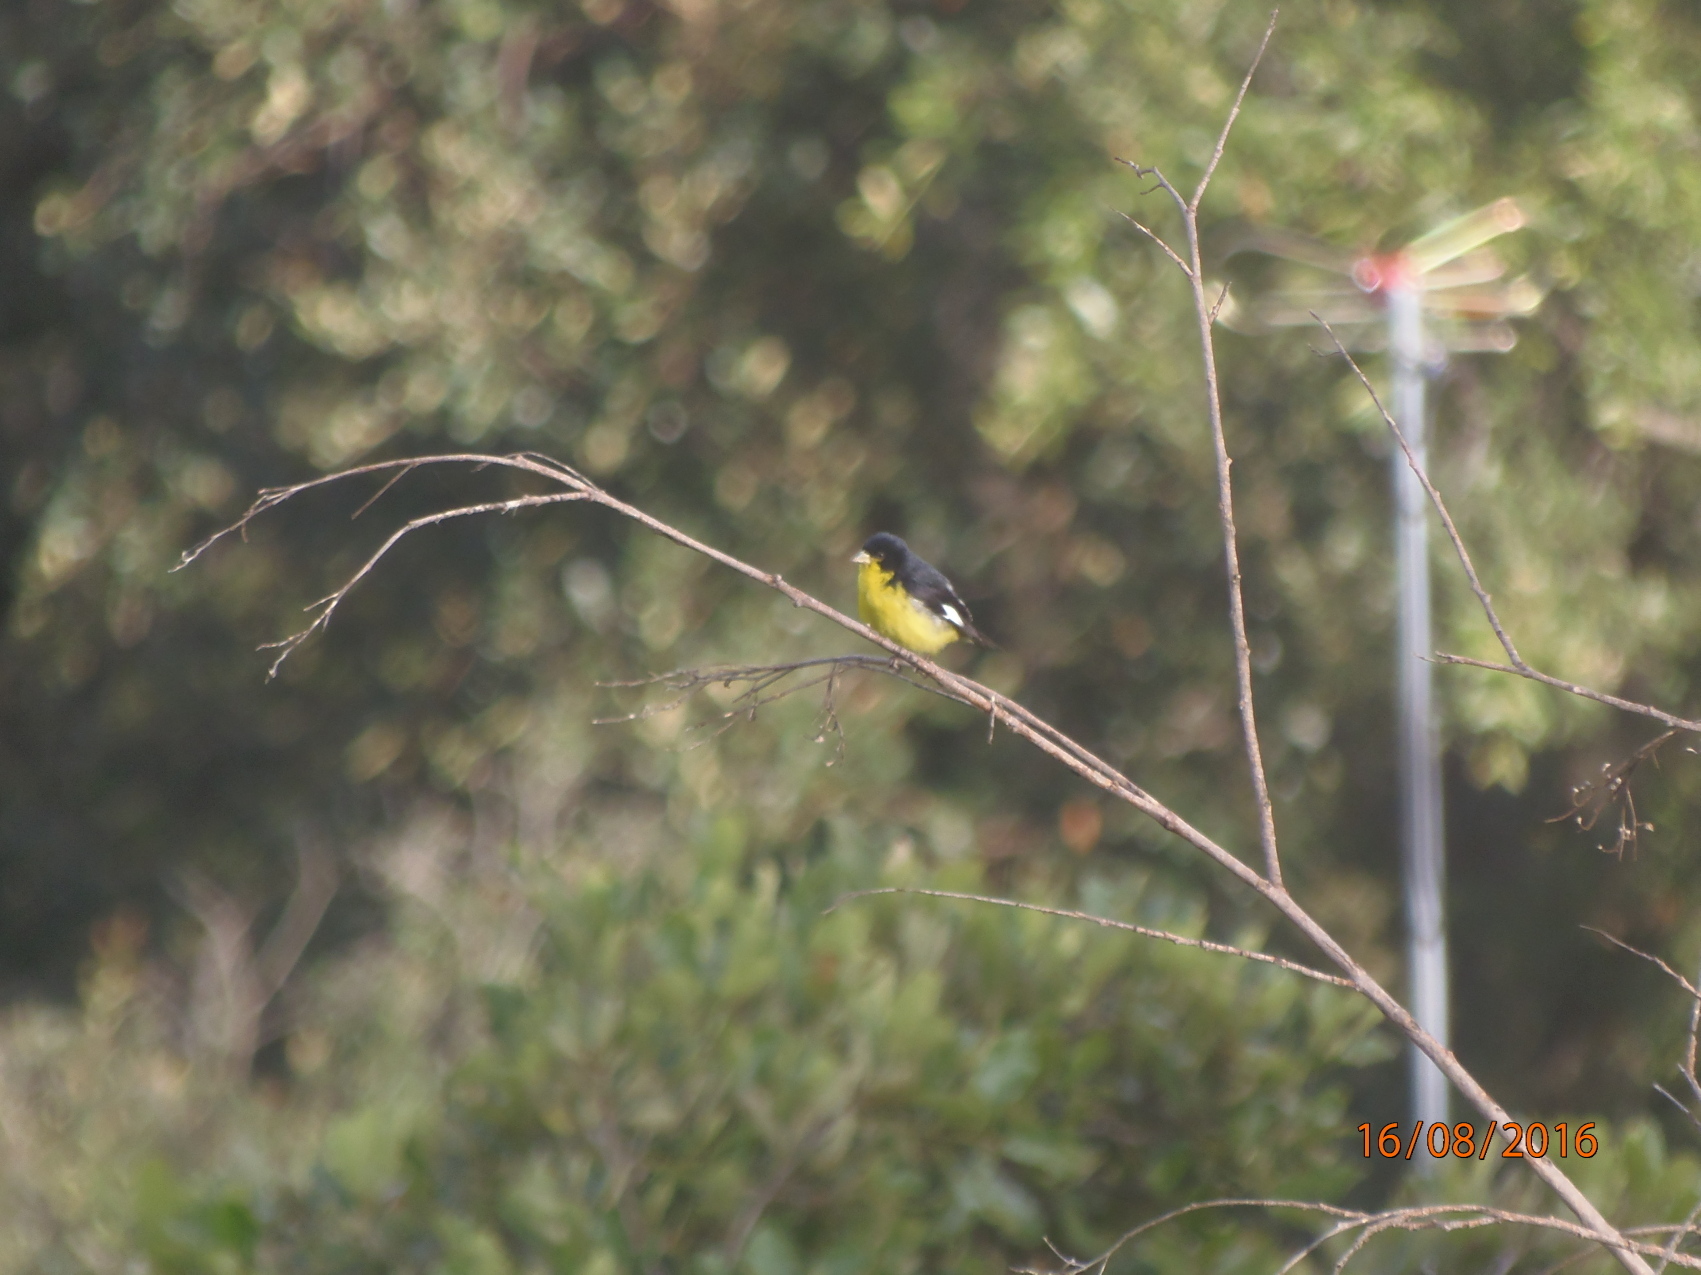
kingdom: Animalia
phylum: Chordata
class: Aves
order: Passeriformes
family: Fringillidae
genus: Spinus
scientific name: Spinus psaltria
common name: Lesser goldfinch
